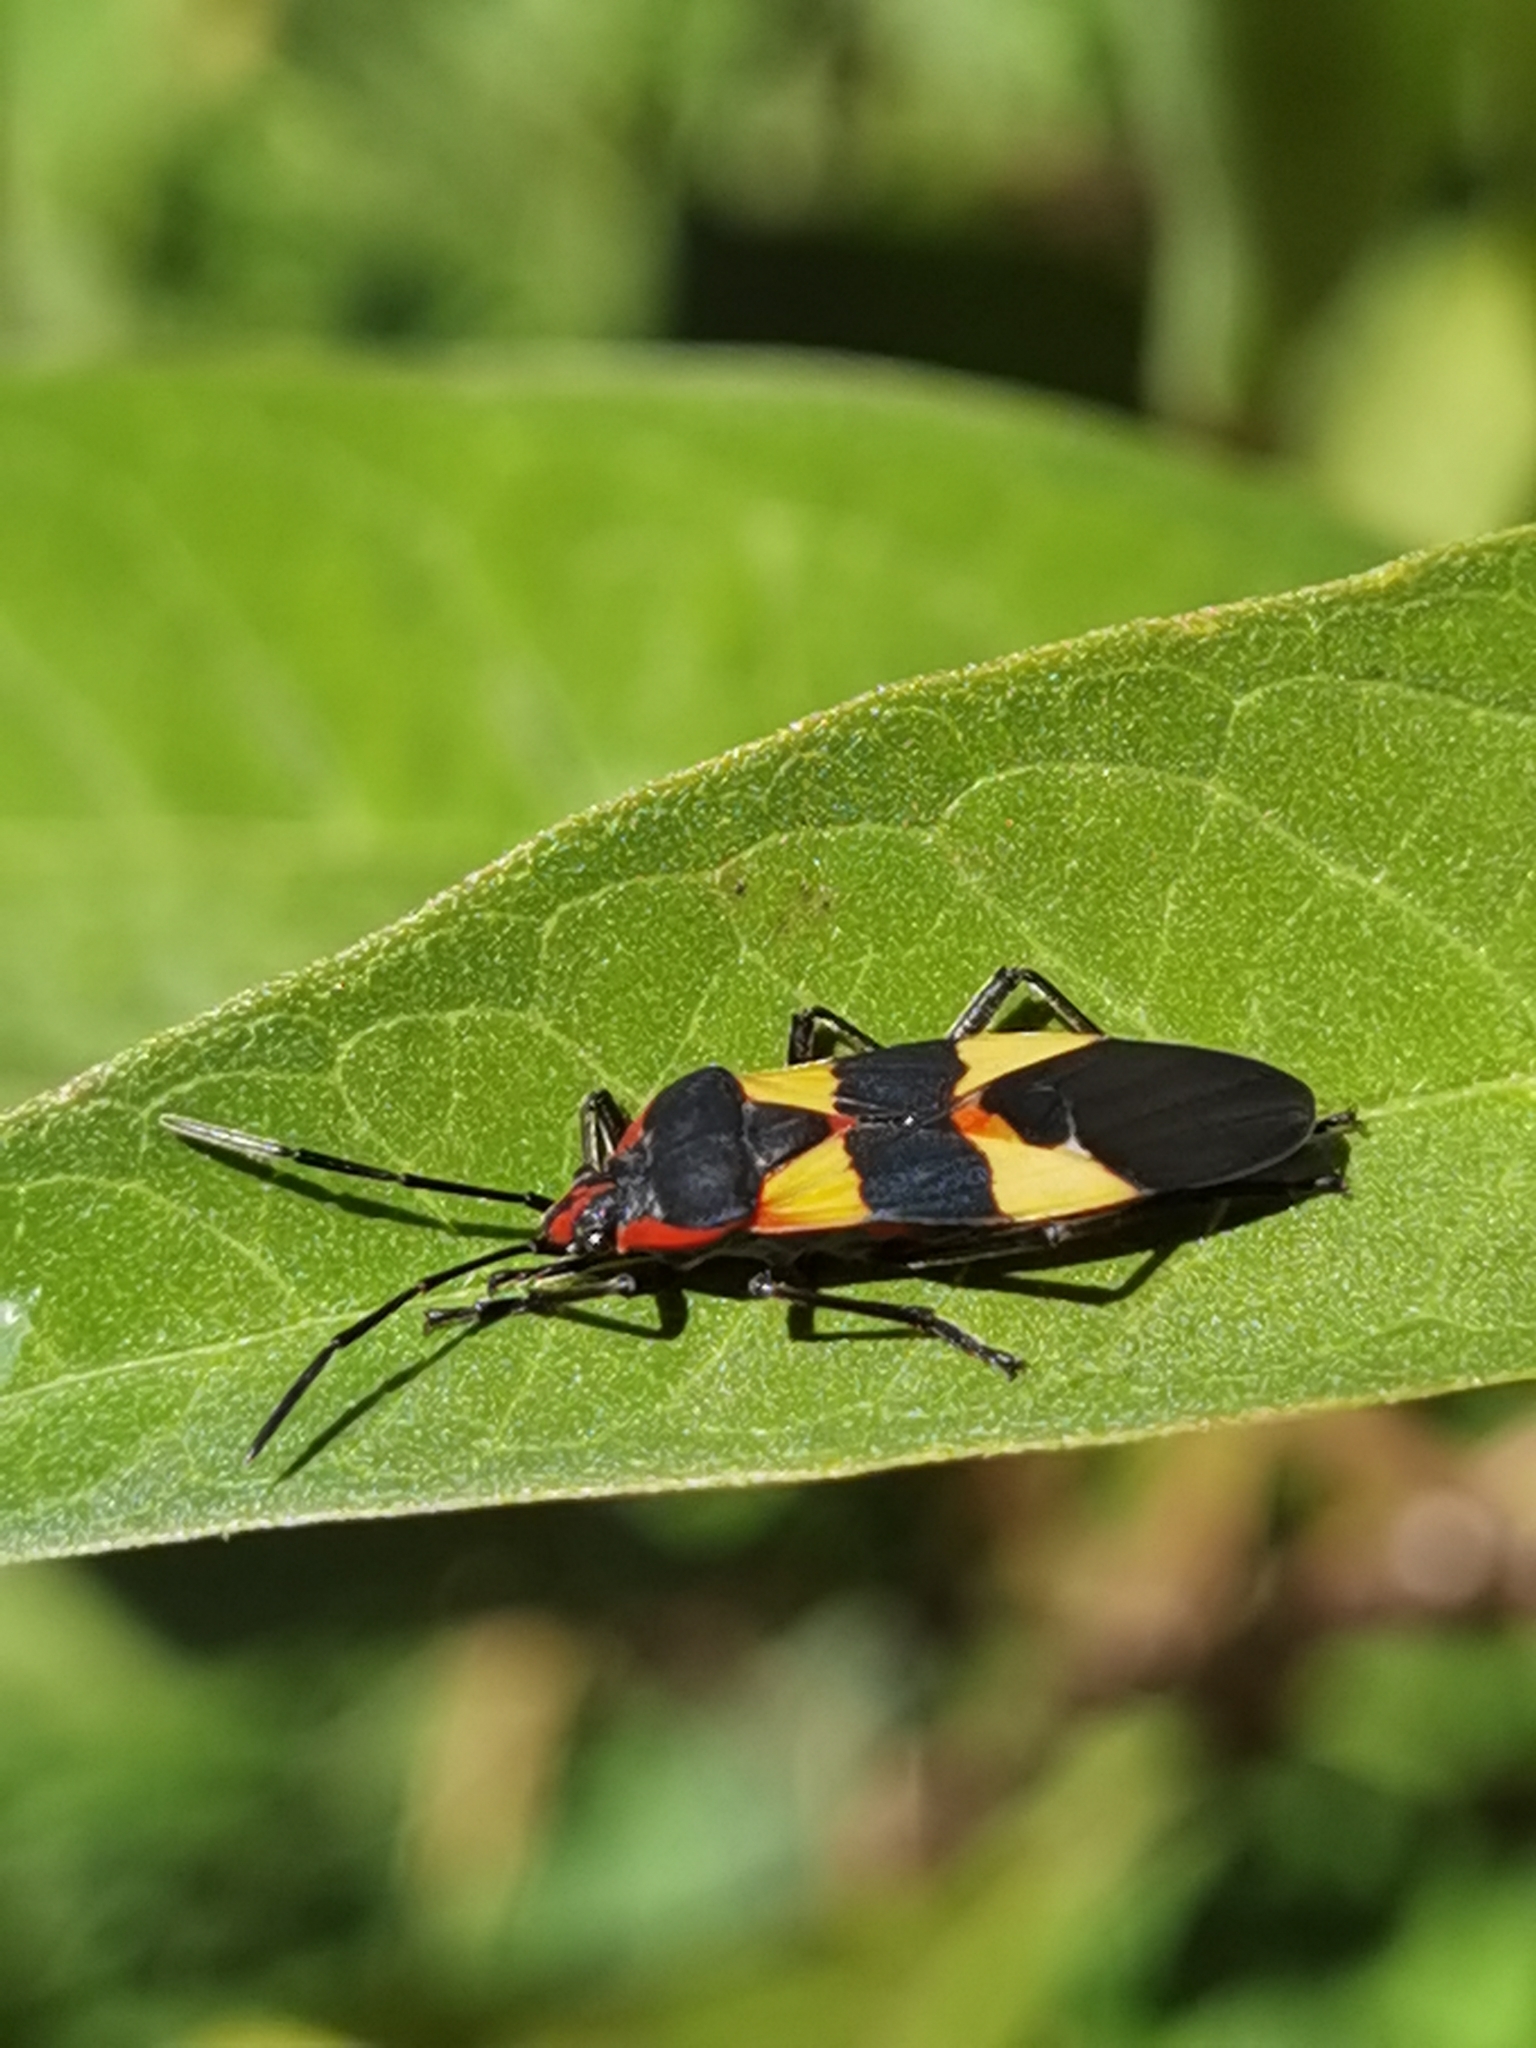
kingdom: Animalia
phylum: Arthropoda
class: Insecta
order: Hemiptera
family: Lygaeidae
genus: Oncopeltus
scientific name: Oncopeltus fasciatus
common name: Large milkweed bug
